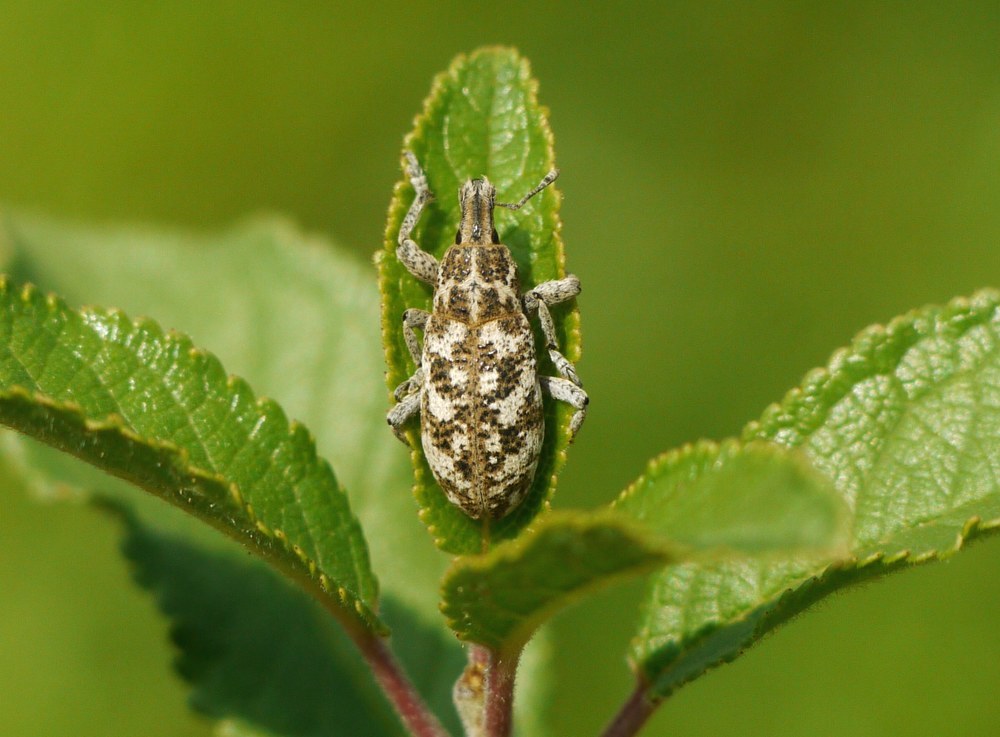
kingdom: Animalia
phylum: Arthropoda
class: Insecta
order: Coleoptera
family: Curculionidae
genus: Cyphocleonus
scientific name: Cyphocleonus dealbatus
